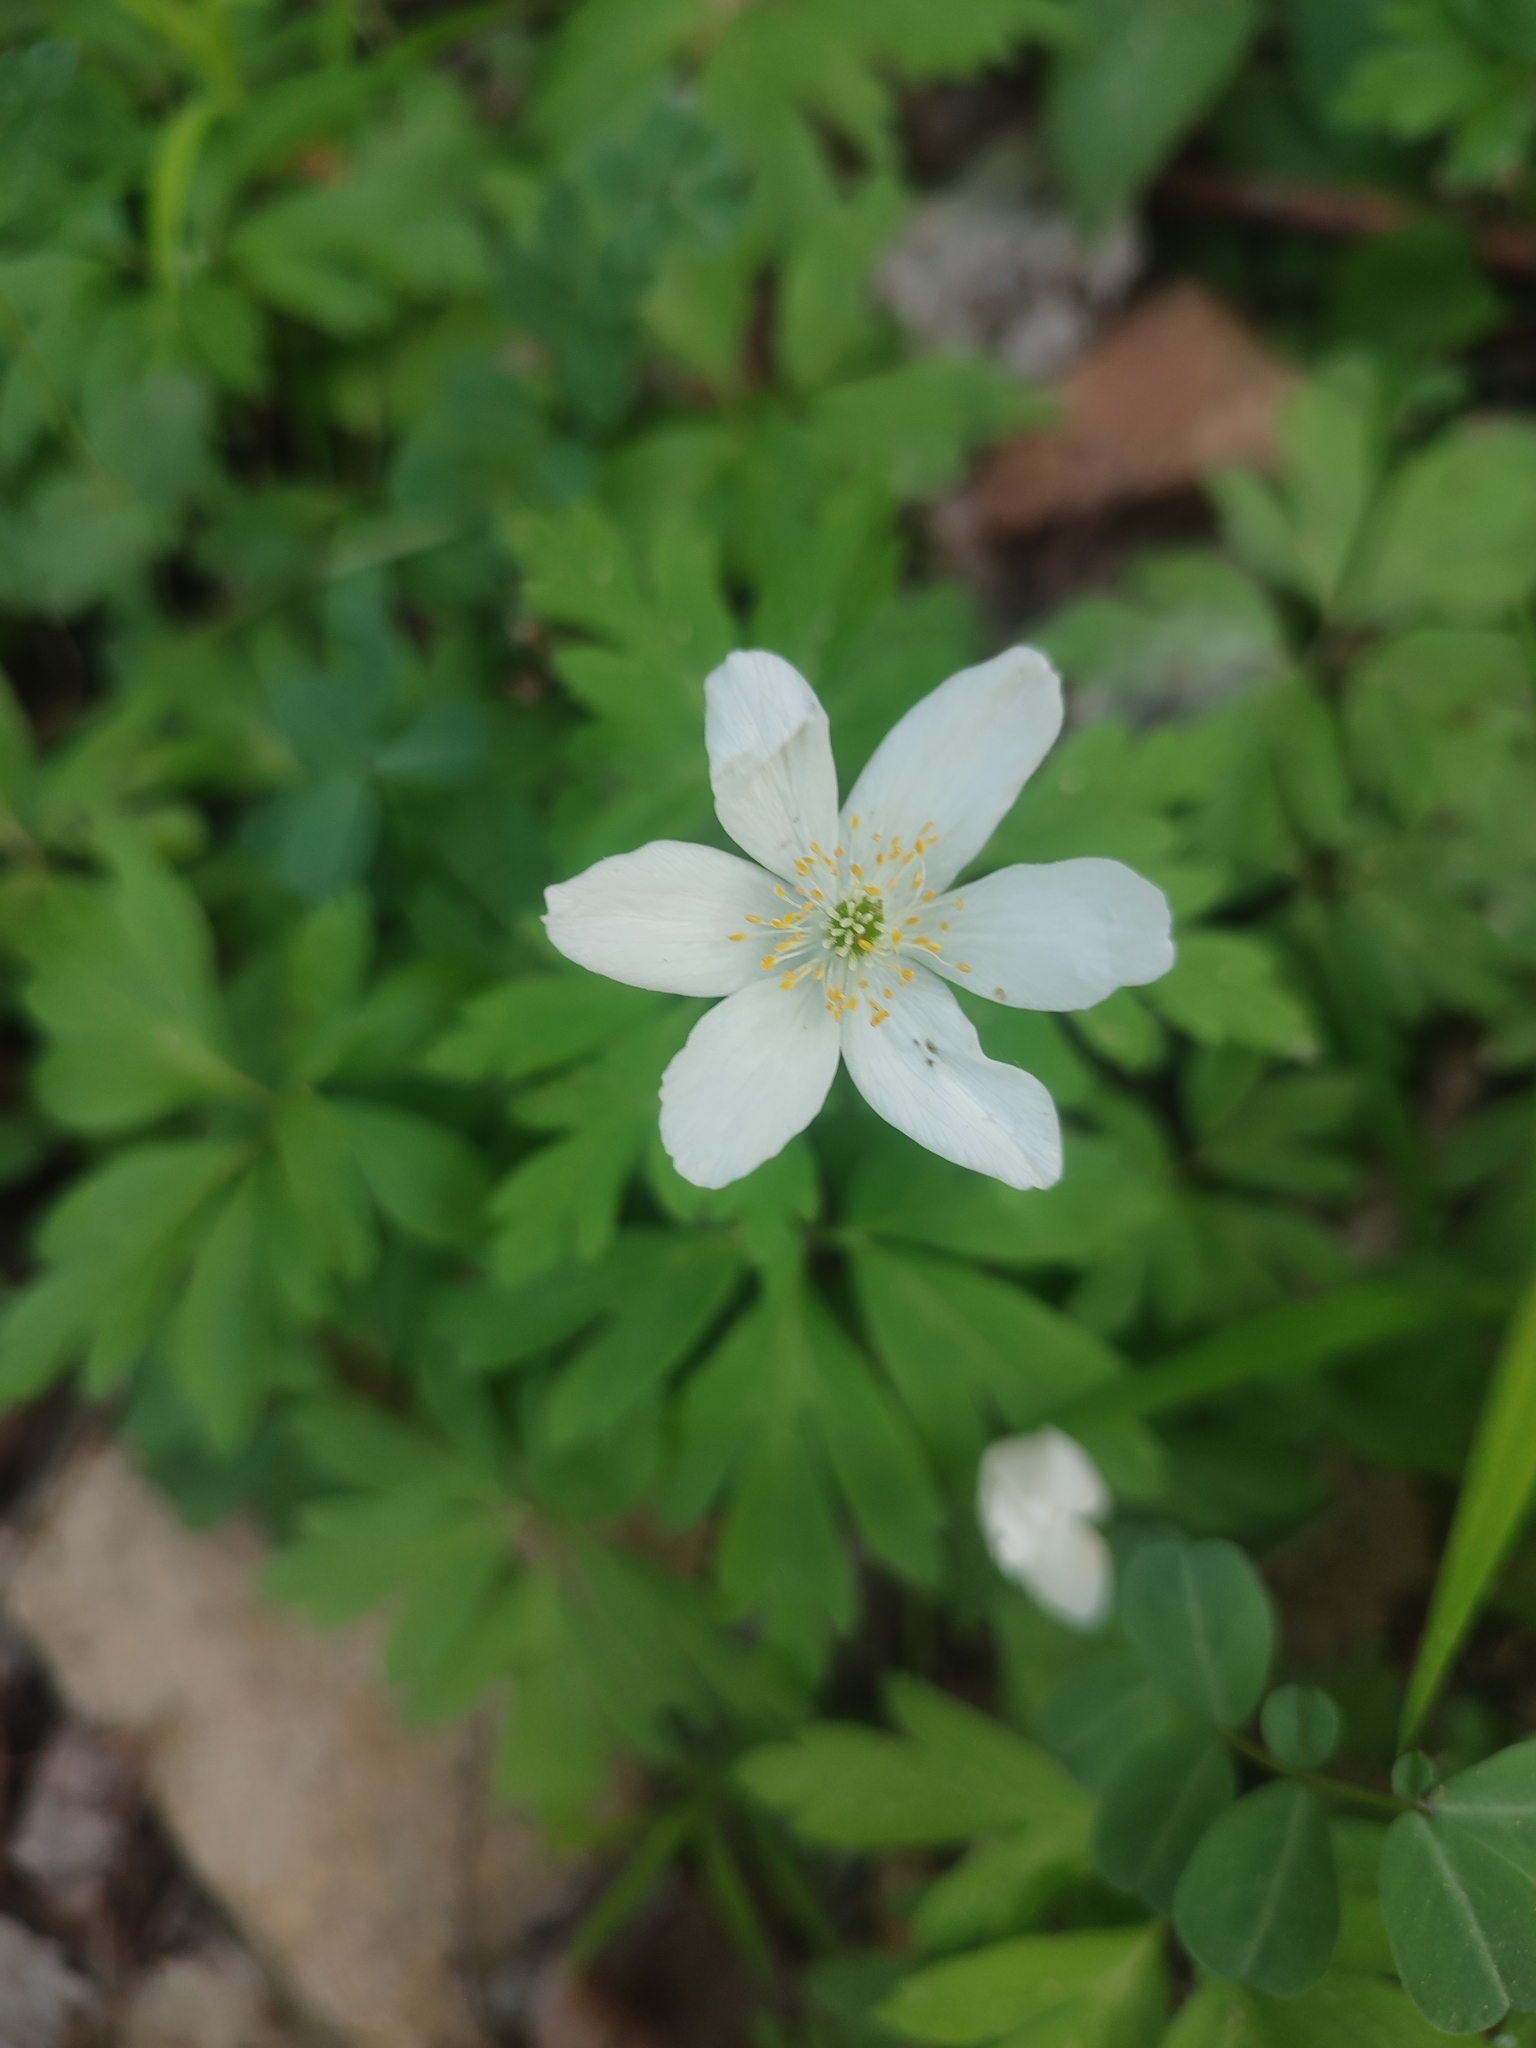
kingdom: Plantae
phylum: Tracheophyta
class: Magnoliopsida
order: Ranunculales
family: Ranunculaceae
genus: Anemone
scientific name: Anemone nemorosa
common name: Wood anemone
